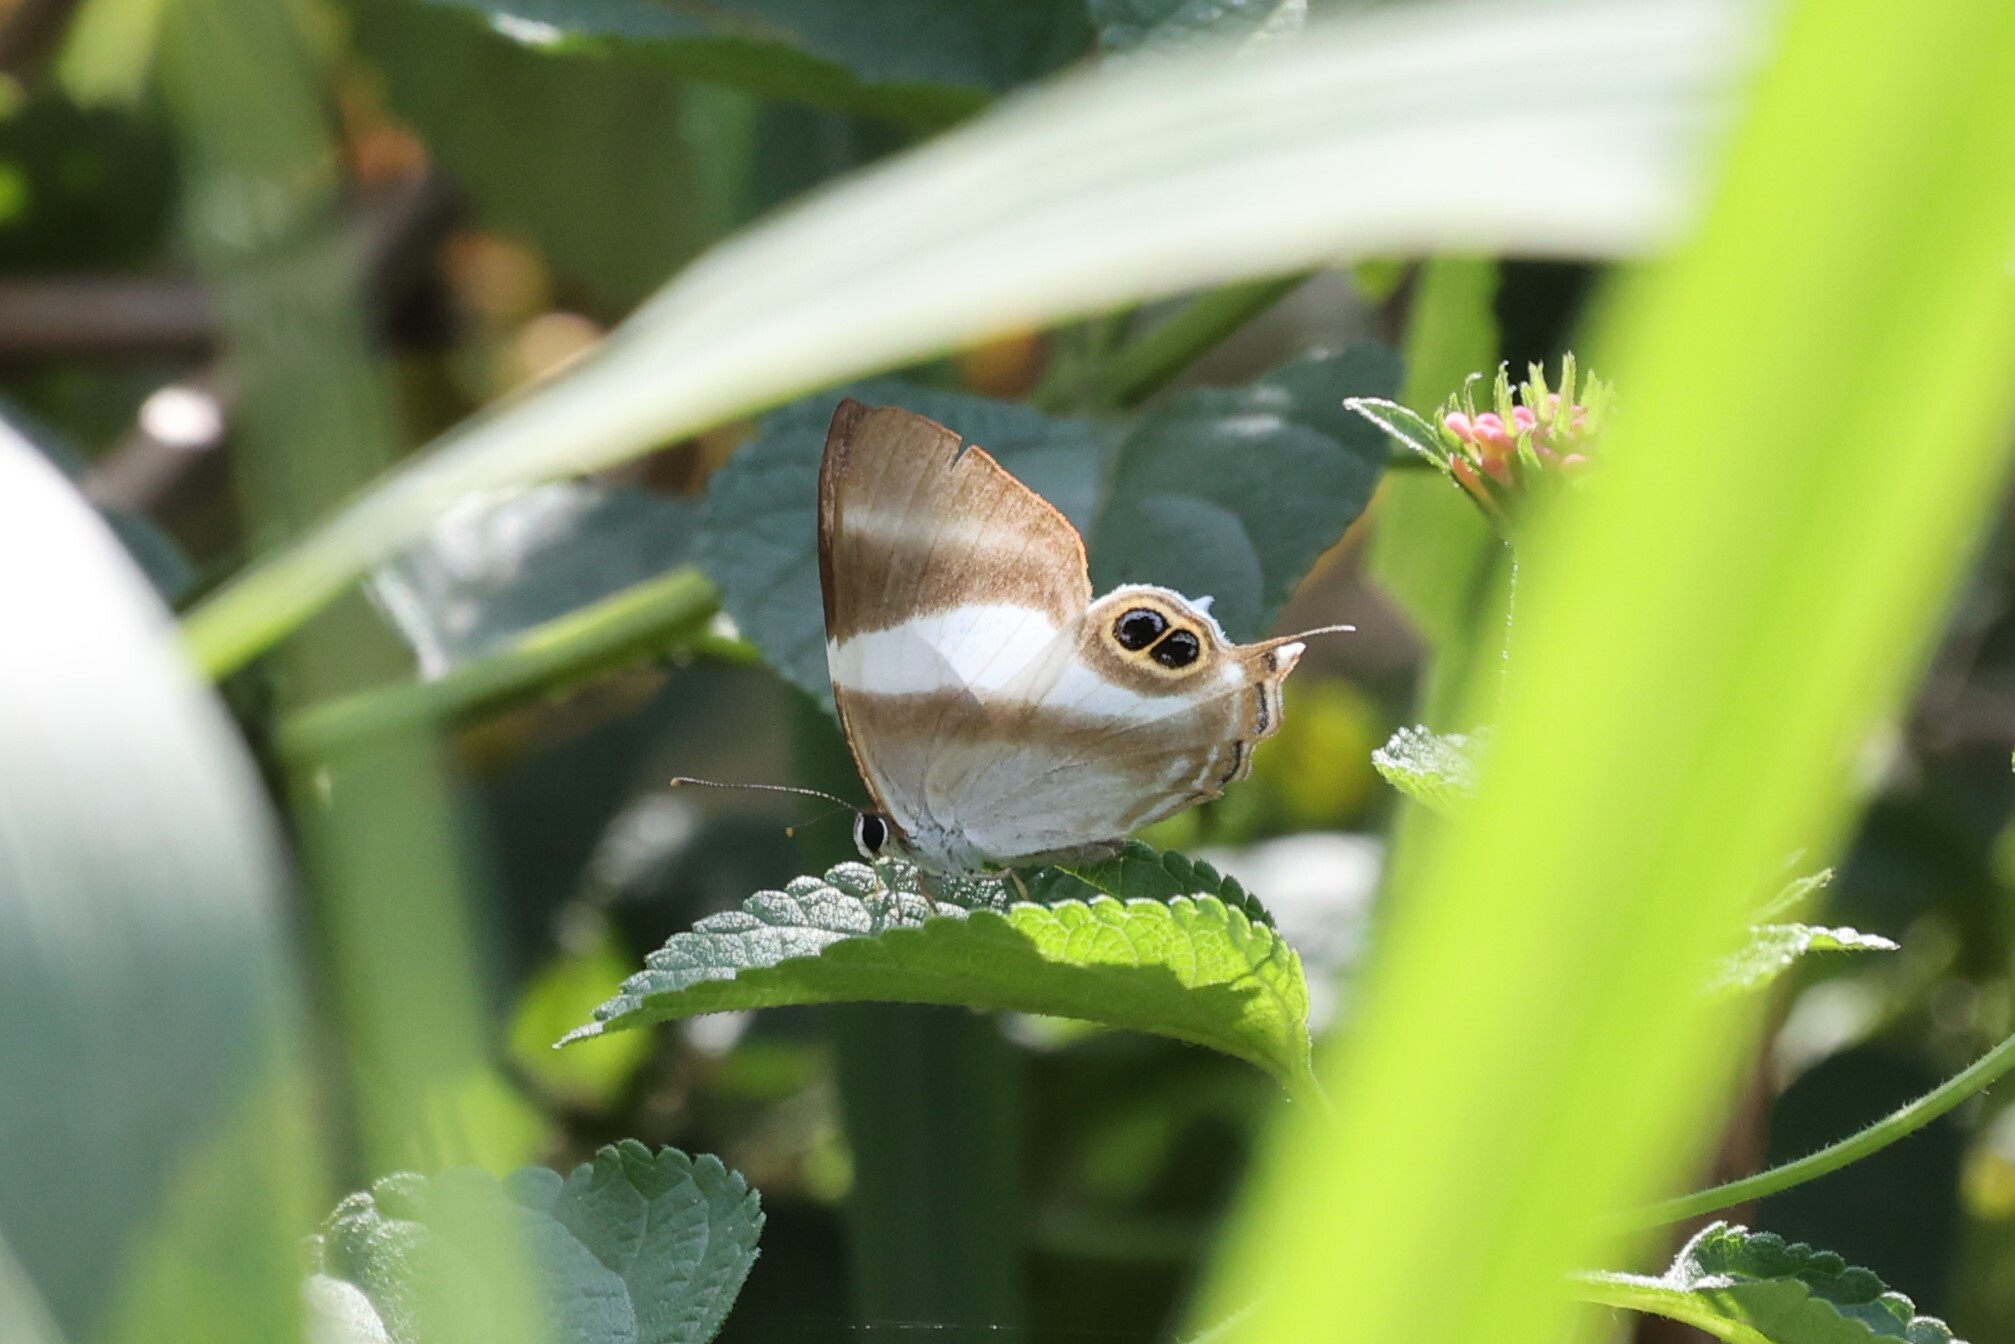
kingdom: Animalia
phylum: Arthropoda
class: Insecta
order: Lepidoptera
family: Riodinidae
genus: Afriodinia
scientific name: Afriodinia
